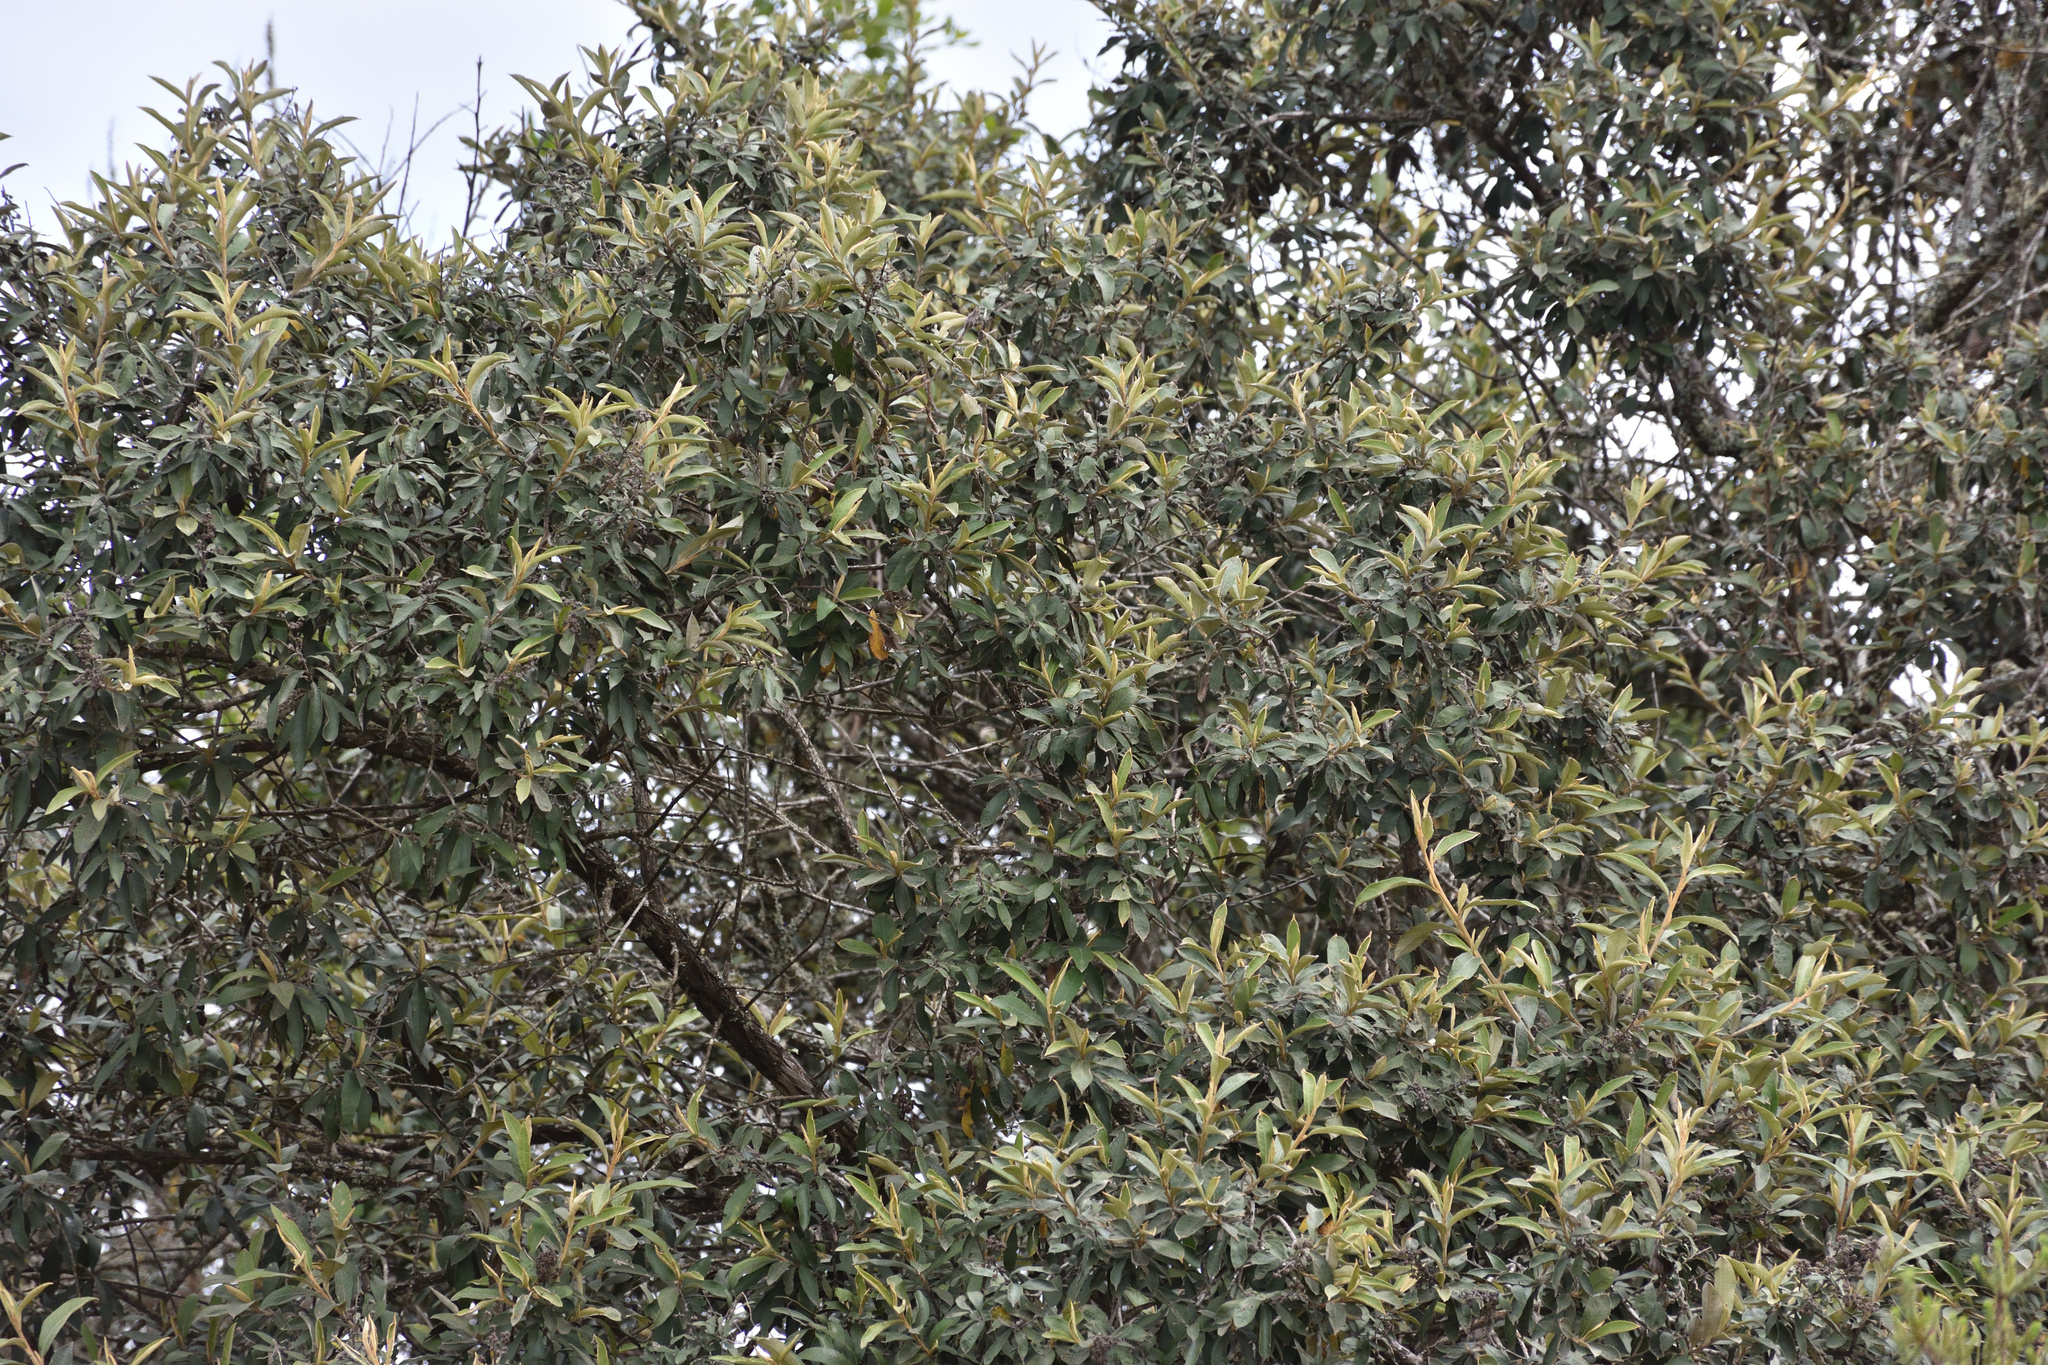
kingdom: Plantae
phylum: Tracheophyta
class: Magnoliopsida
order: Asterales
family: Asteraceae
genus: Tarchonanthus
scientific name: Tarchonanthus littoralis
